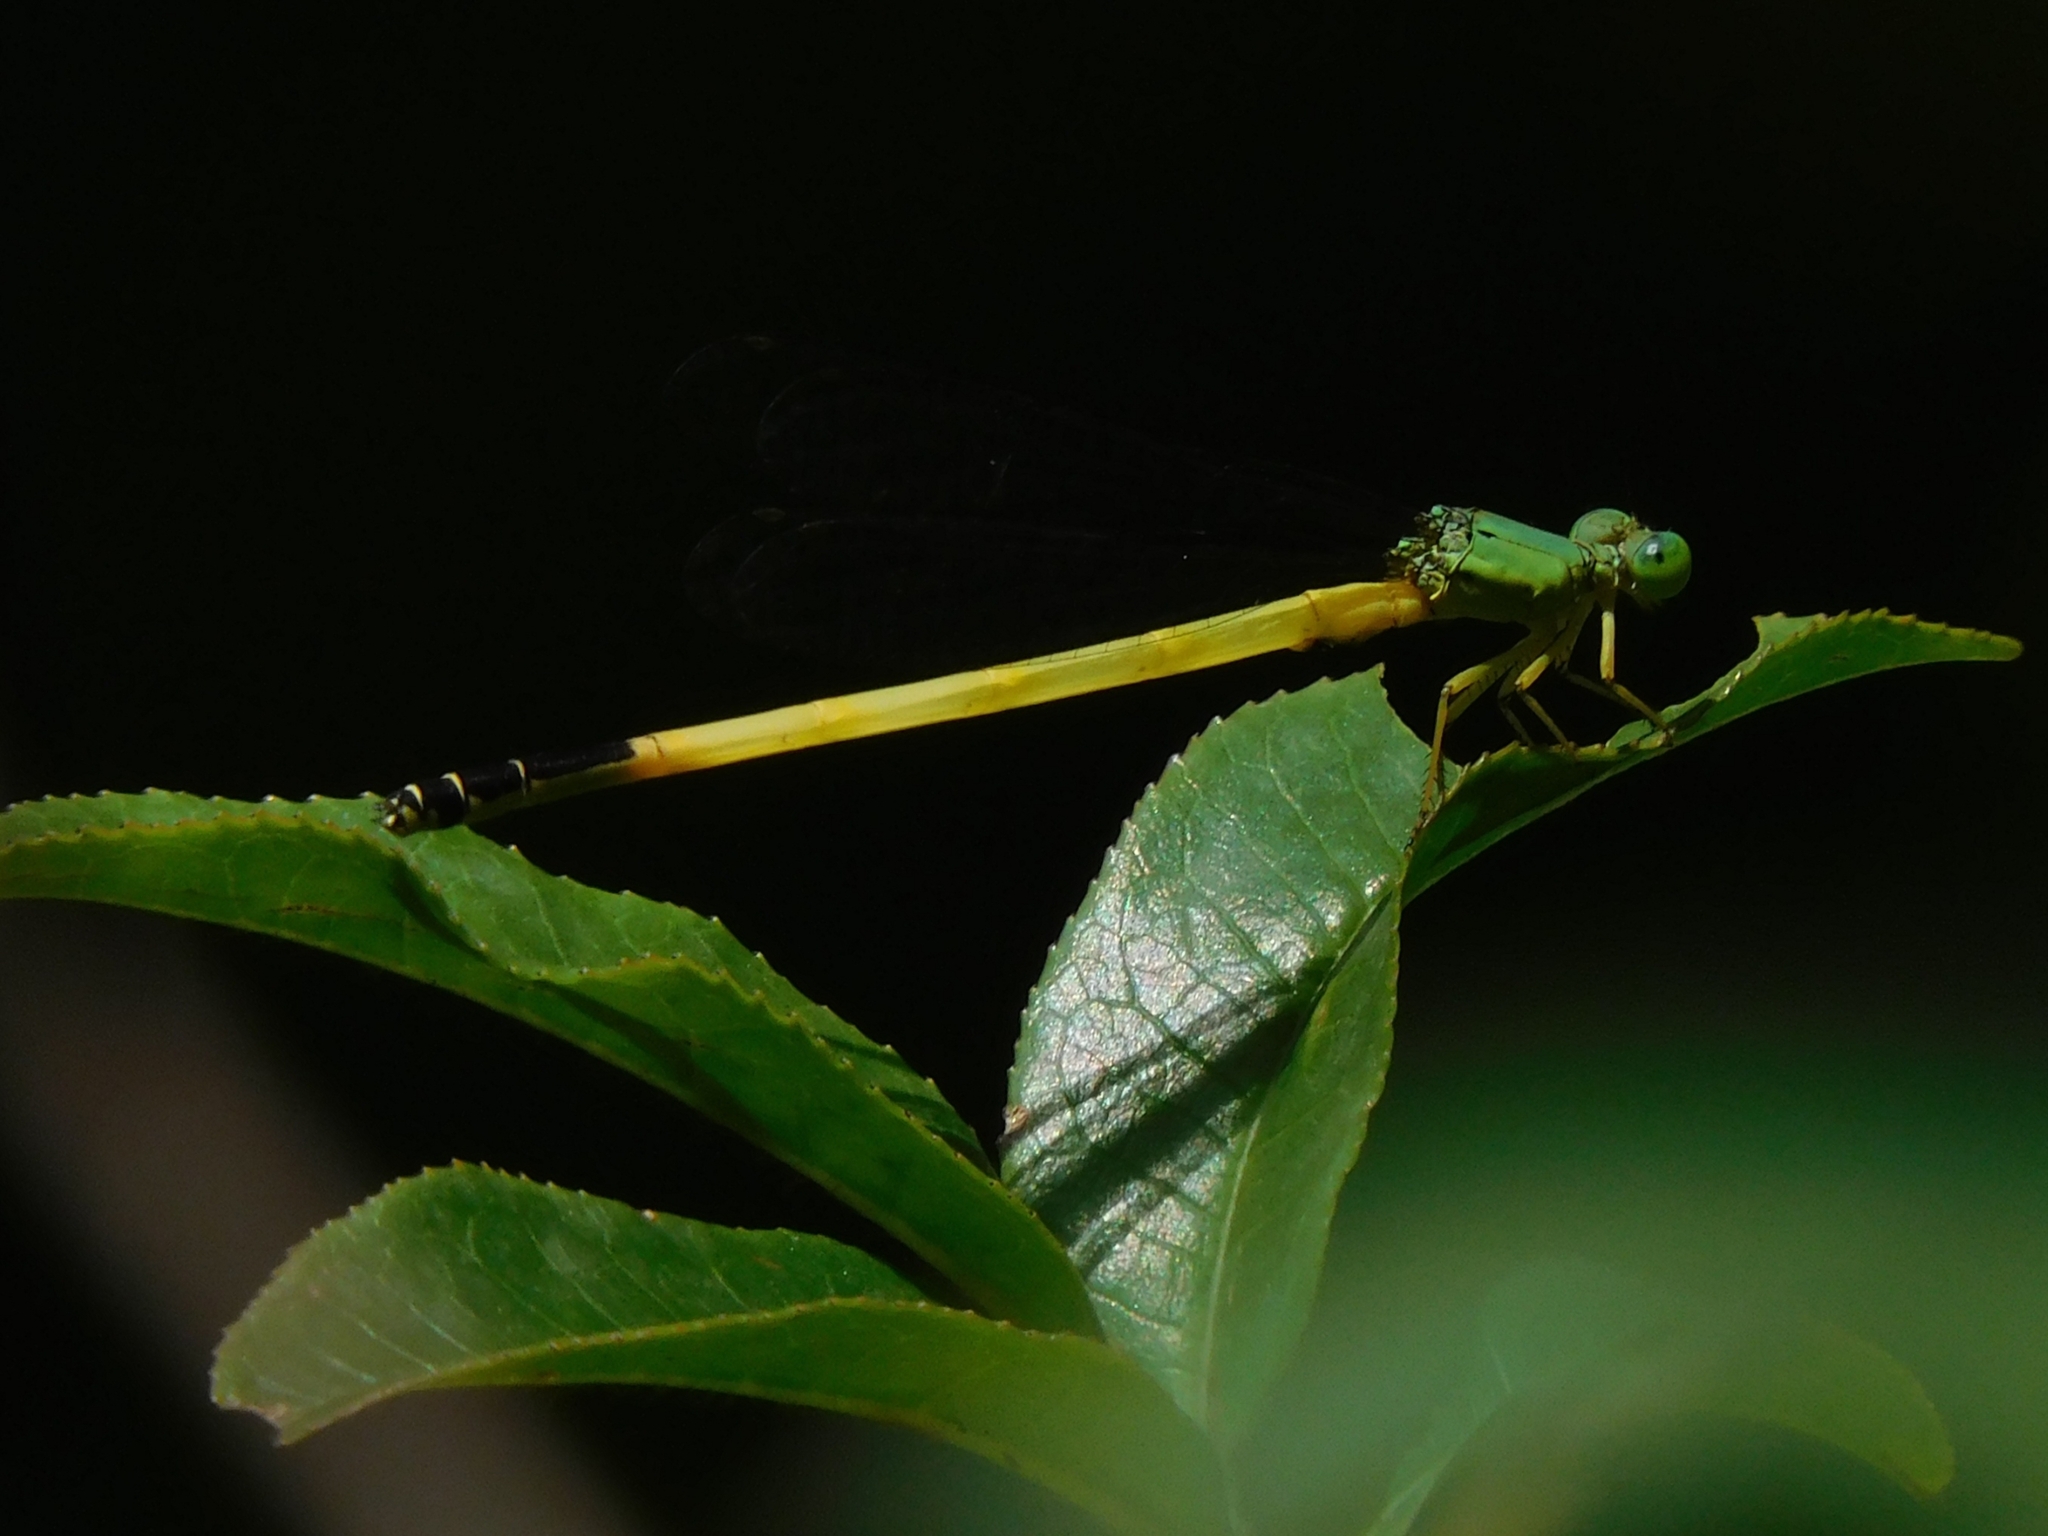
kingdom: Animalia
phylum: Arthropoda
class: Insecta
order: Odonata
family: Coenagrionidae
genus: Ceriagrion
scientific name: Ceriagrion fallax
